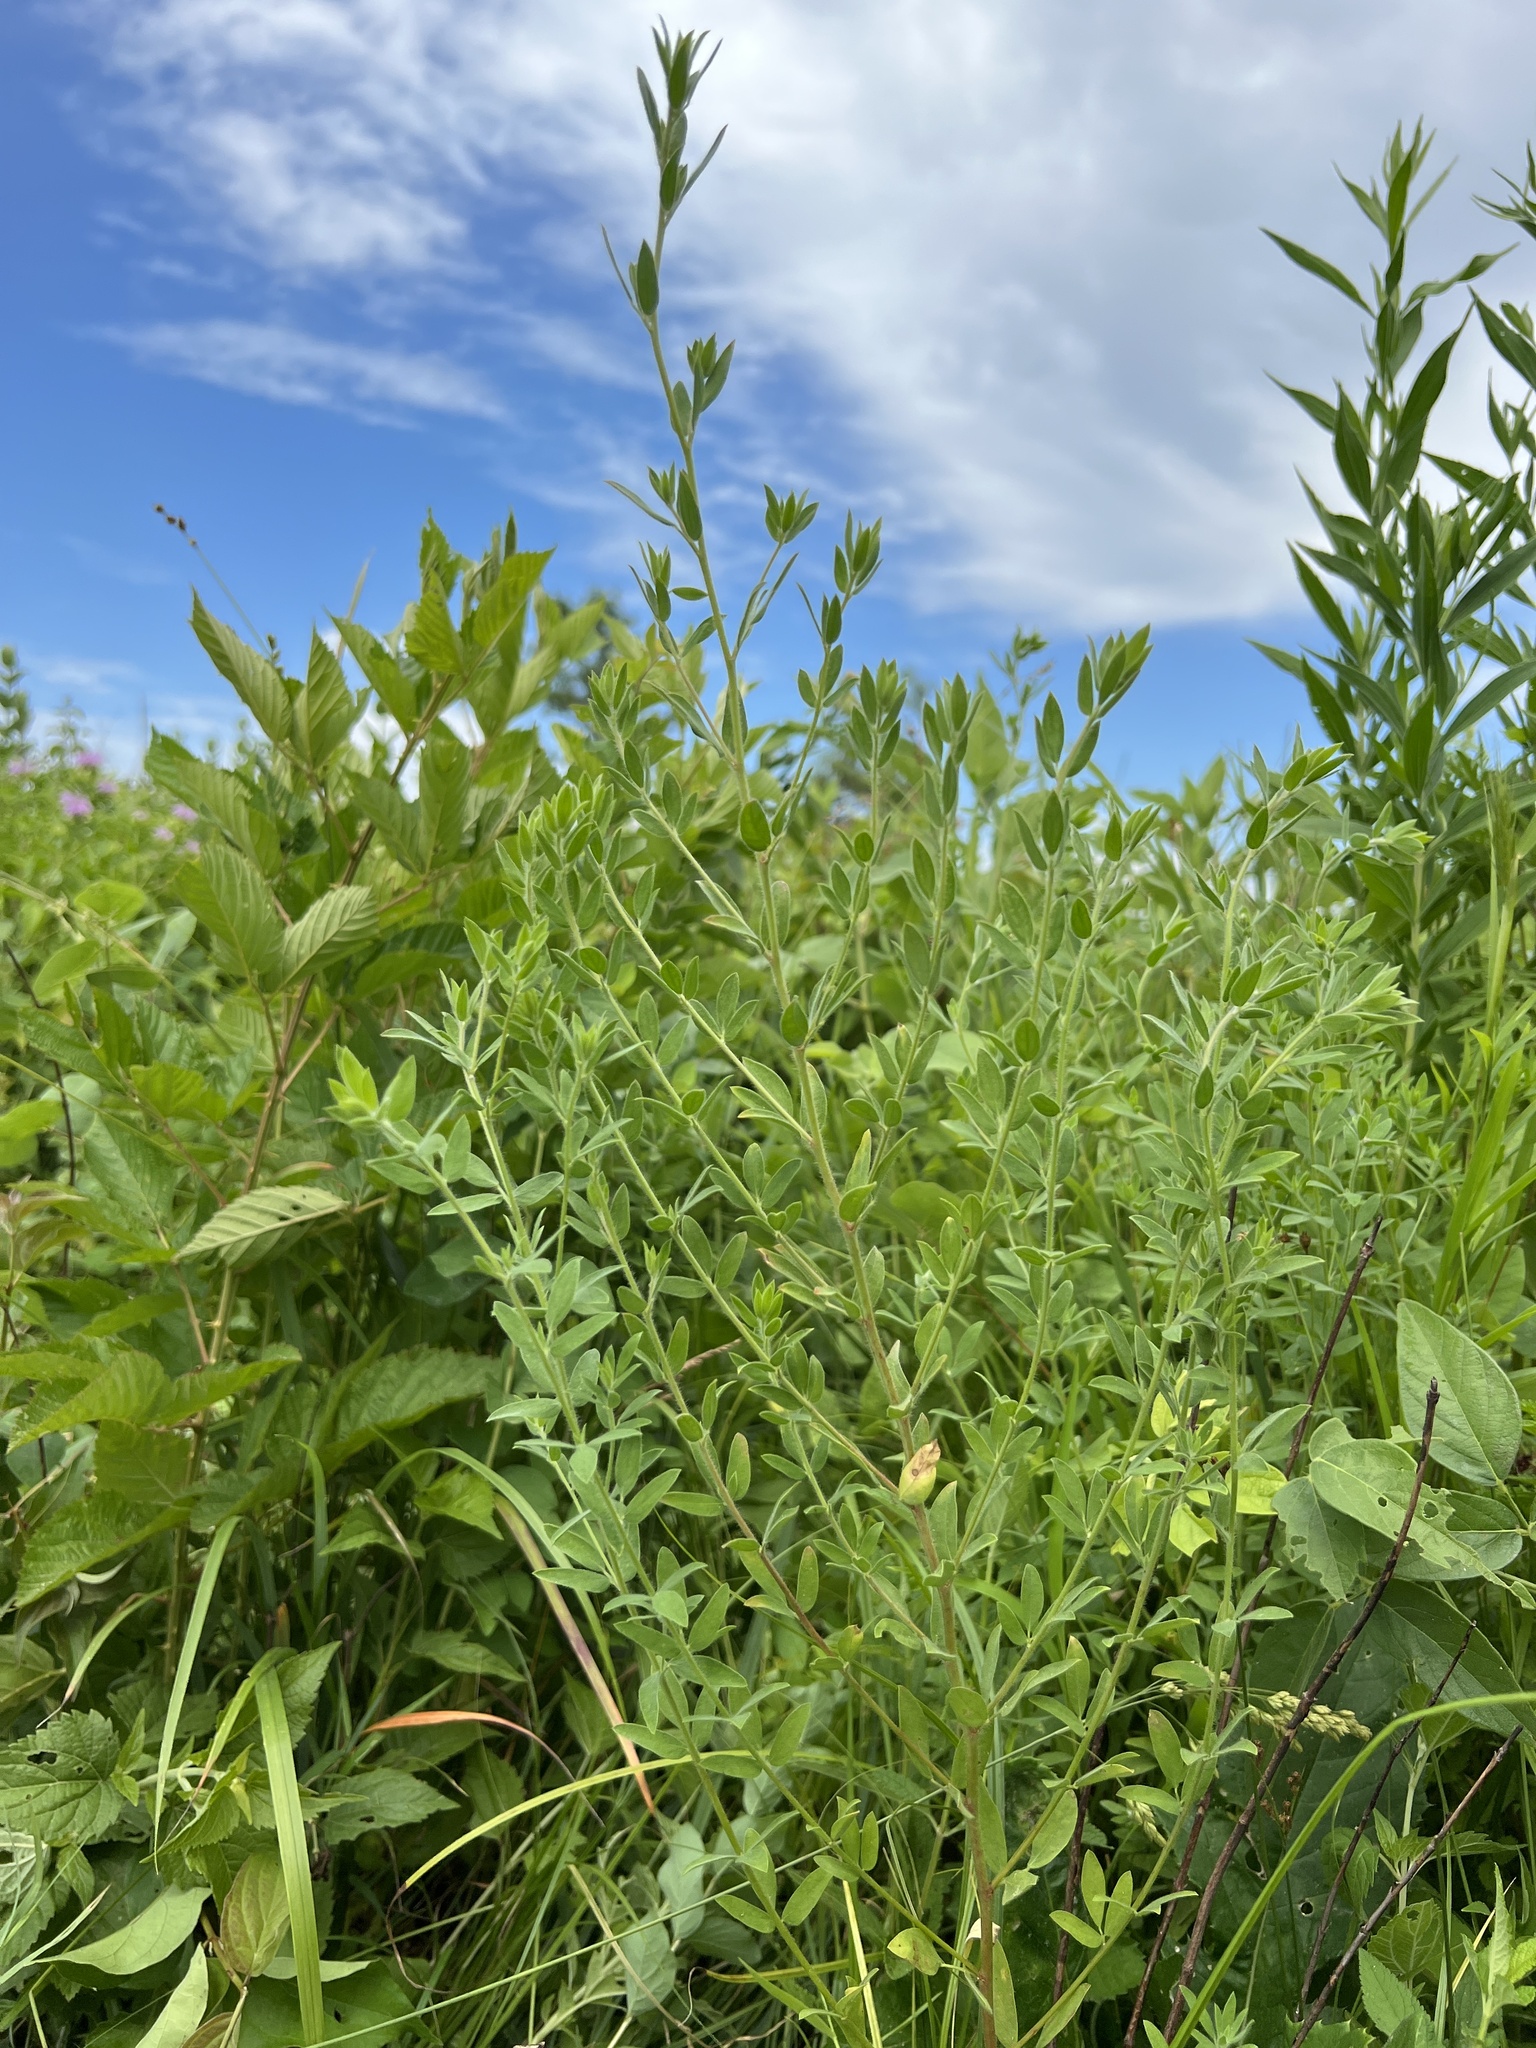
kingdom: Plantae
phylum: Tracheophyta
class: Magnoliopsida
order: Fabales
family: Fabaceae
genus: Acmispon
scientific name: Acmispon americanus
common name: American bird's-foot trefoil
